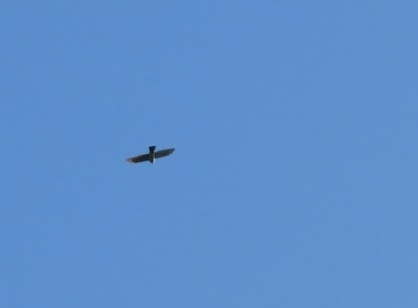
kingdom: Animalia
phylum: Chordata
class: Aves
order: Accipitriformes
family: Accipitridae
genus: Accipiter
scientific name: Accipiter nisus
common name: Eurasian sparrowhawk
